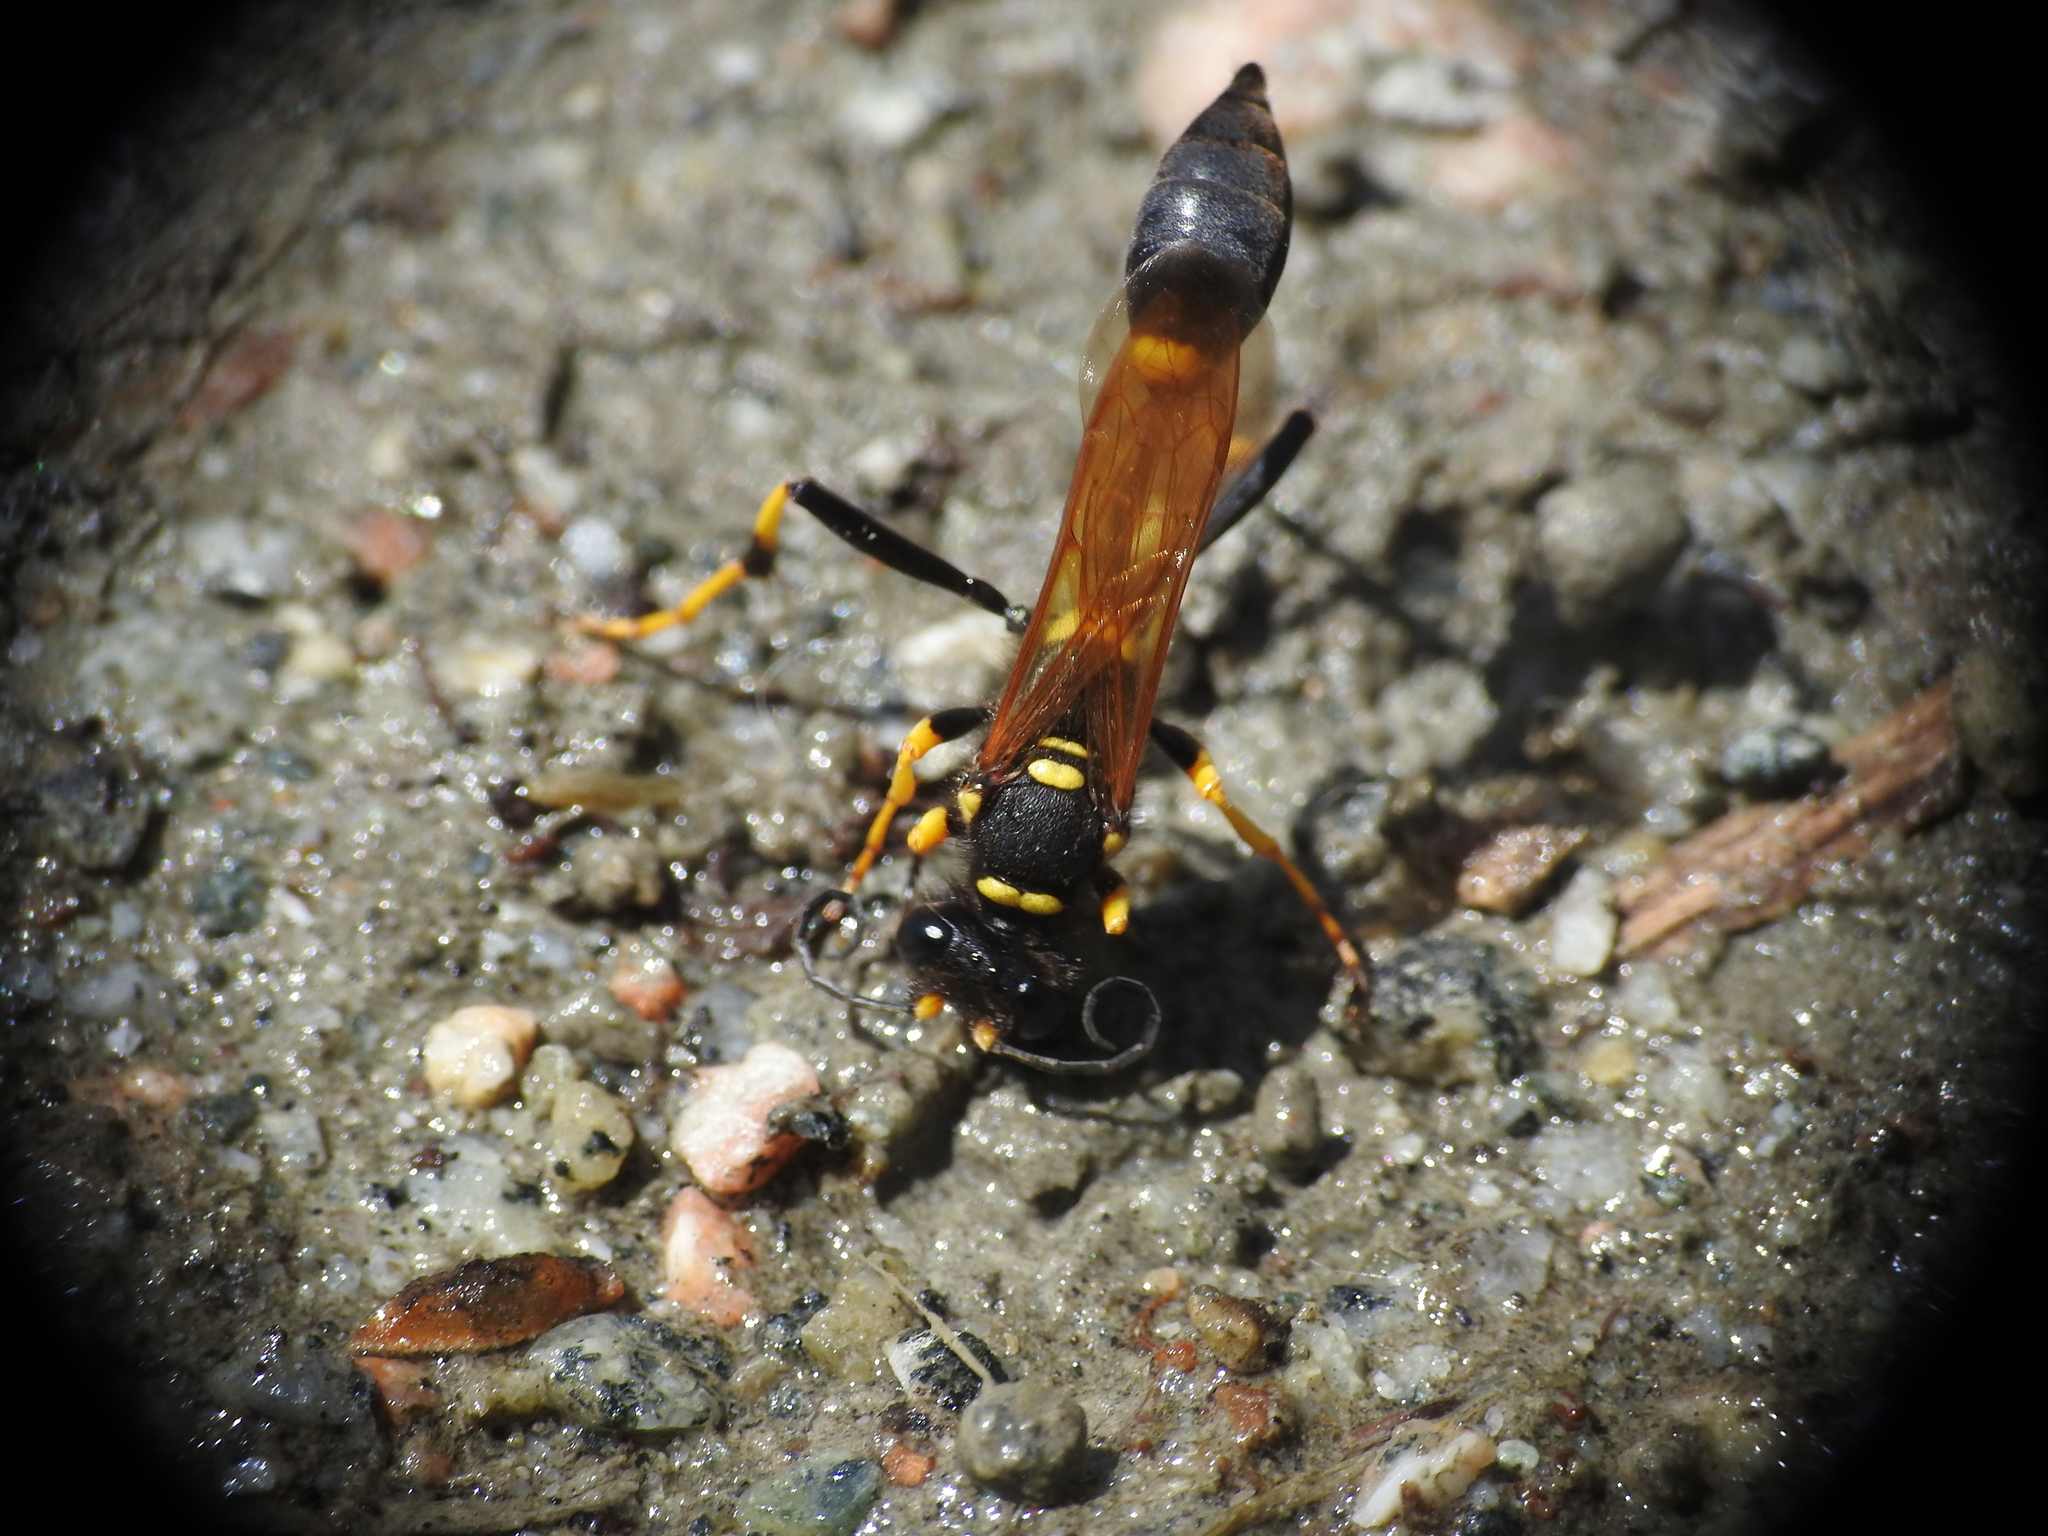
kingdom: Animalia
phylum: Arthropoda
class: Insecta
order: Hymenoptera
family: Sphecidae
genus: Sceliphron
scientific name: Sceliphron caementarium
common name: Mud dauber
